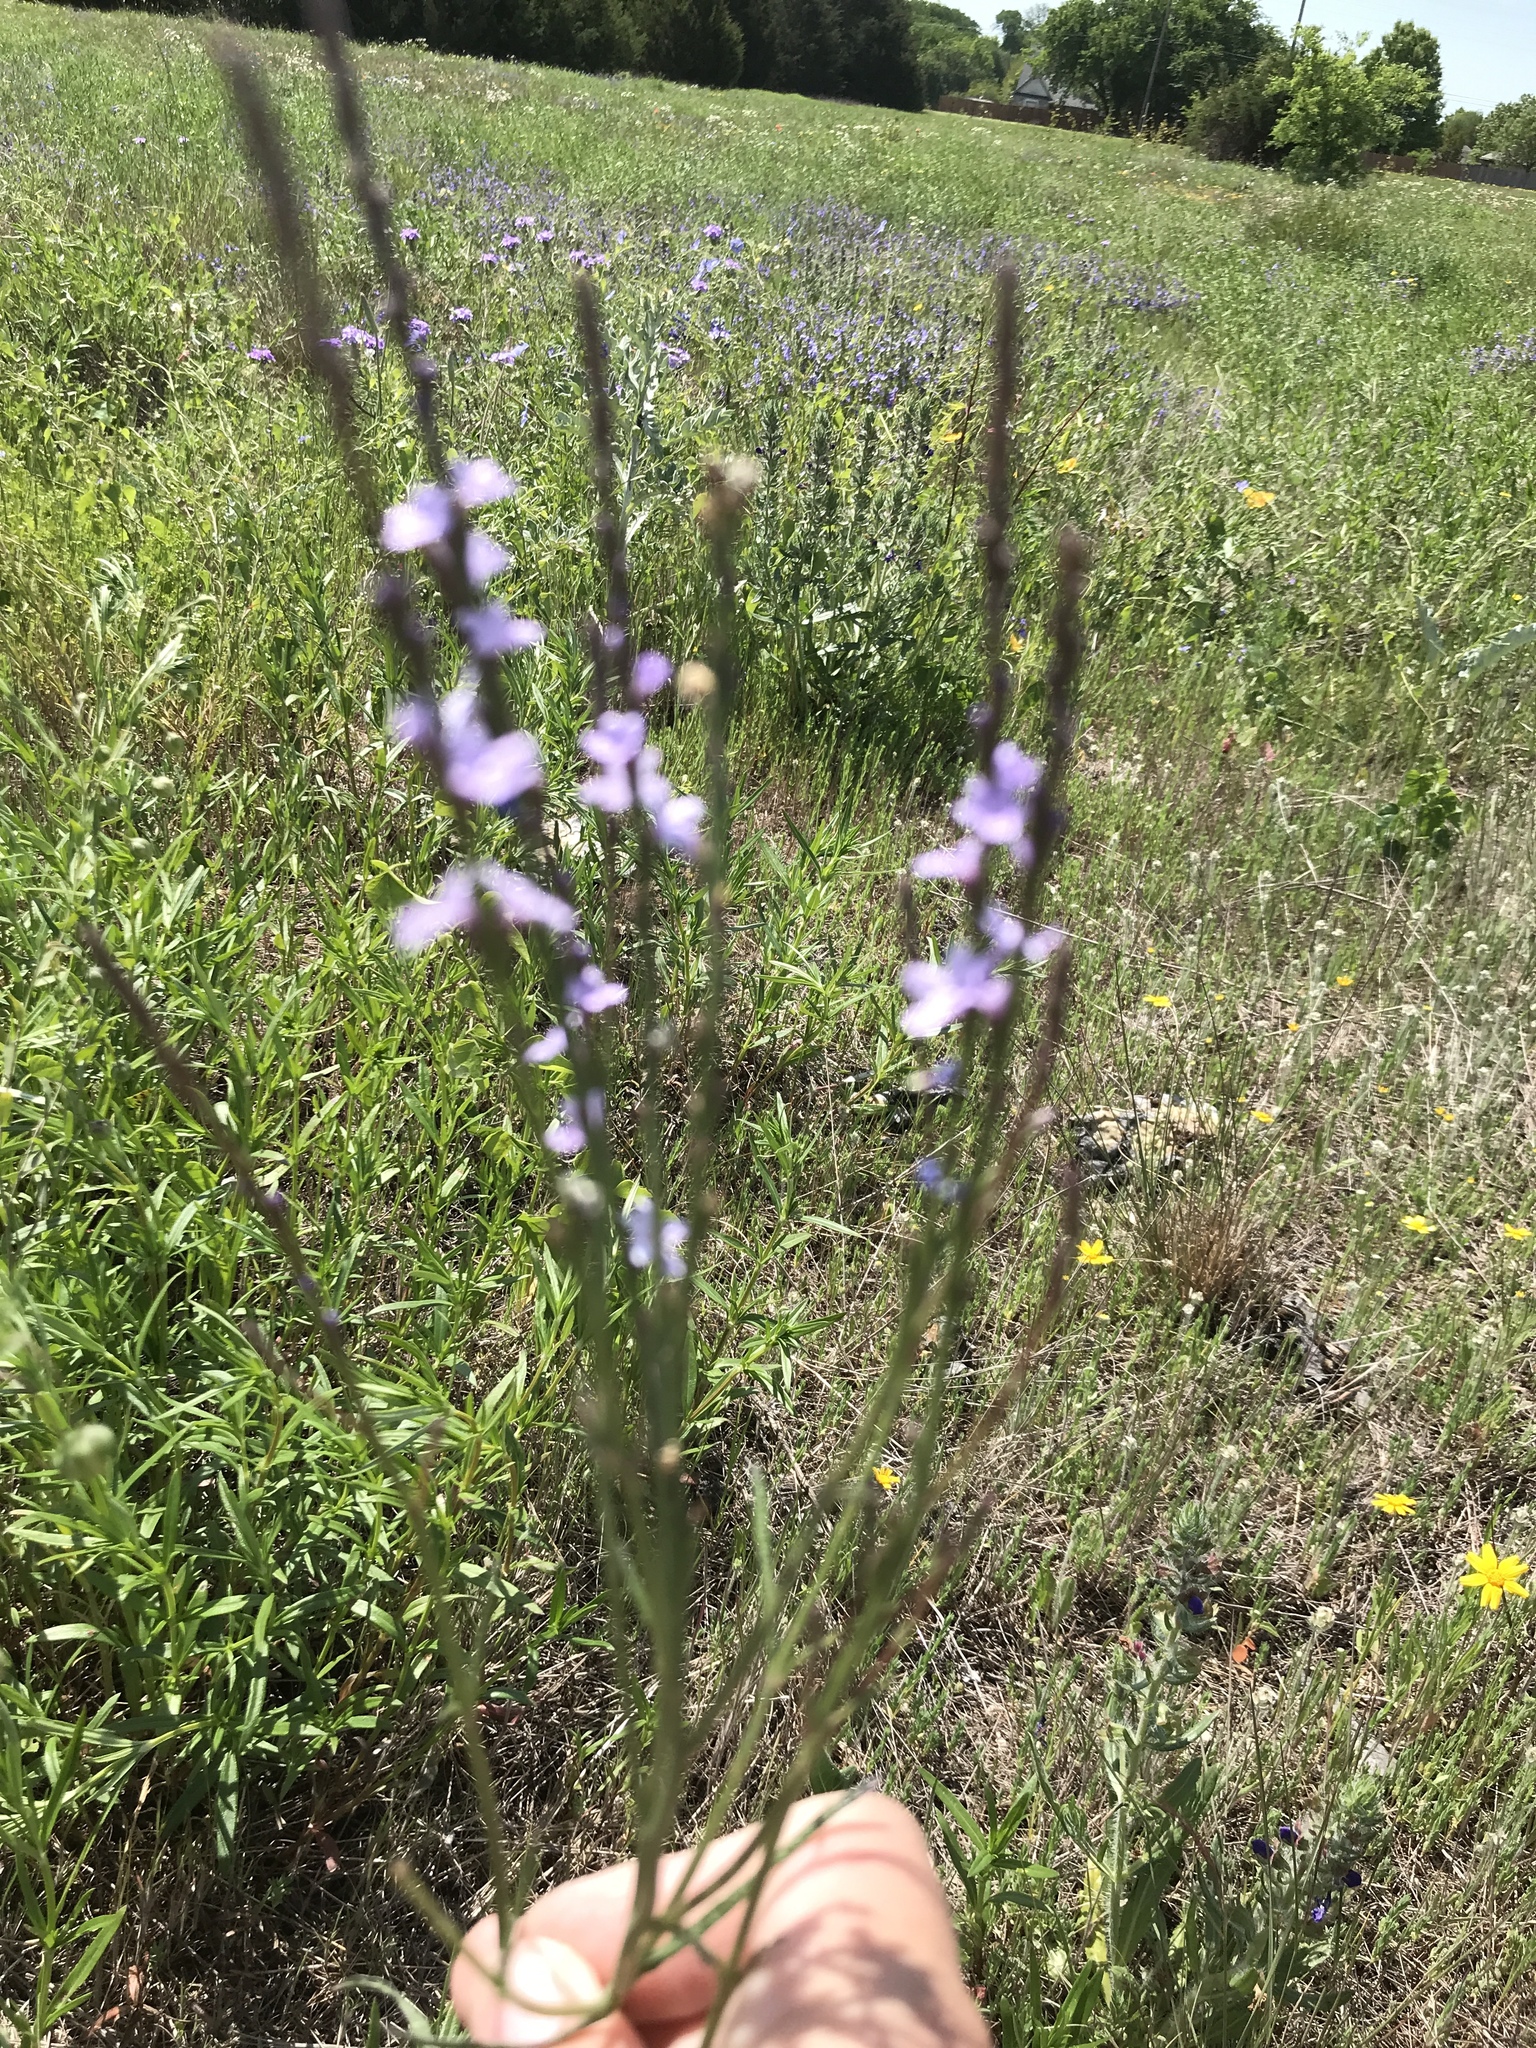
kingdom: Plantae
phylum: Tracheophyta
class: Magnoliopsida
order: Lamiales
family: Verbenaceae
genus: Verbena
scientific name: Verbena halei
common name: Texas vervain
